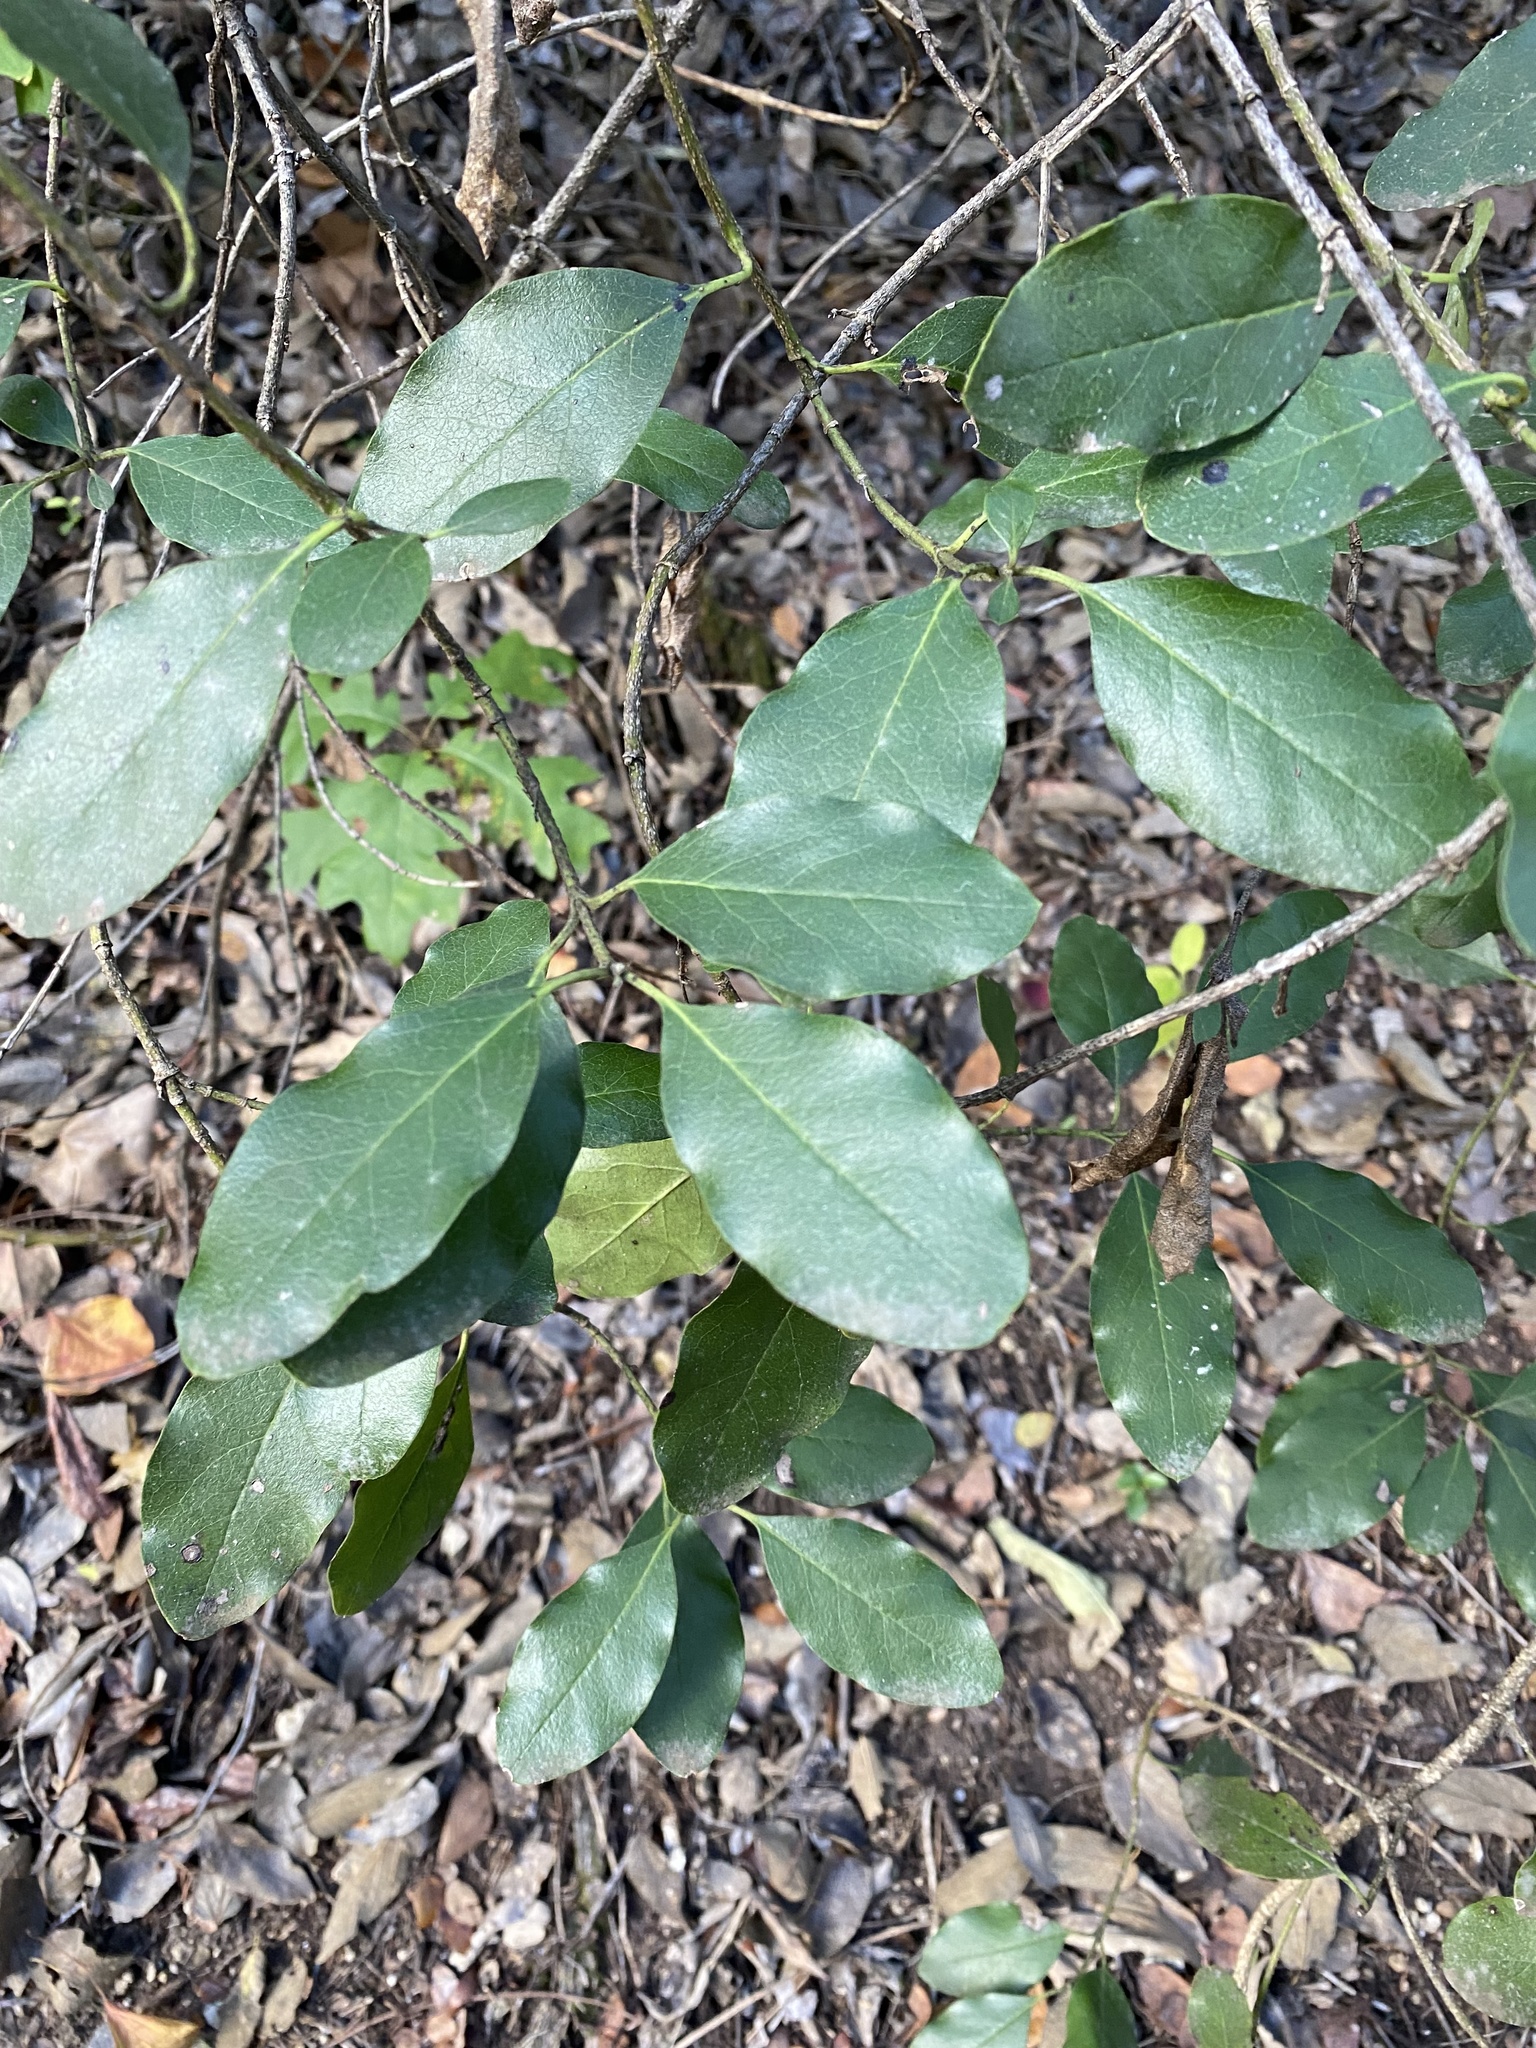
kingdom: Plantae
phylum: Tracheophyta
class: Magnoliopsida
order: Garryales
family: Garryaceae
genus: Garrya
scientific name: Garrya lindheimeri
